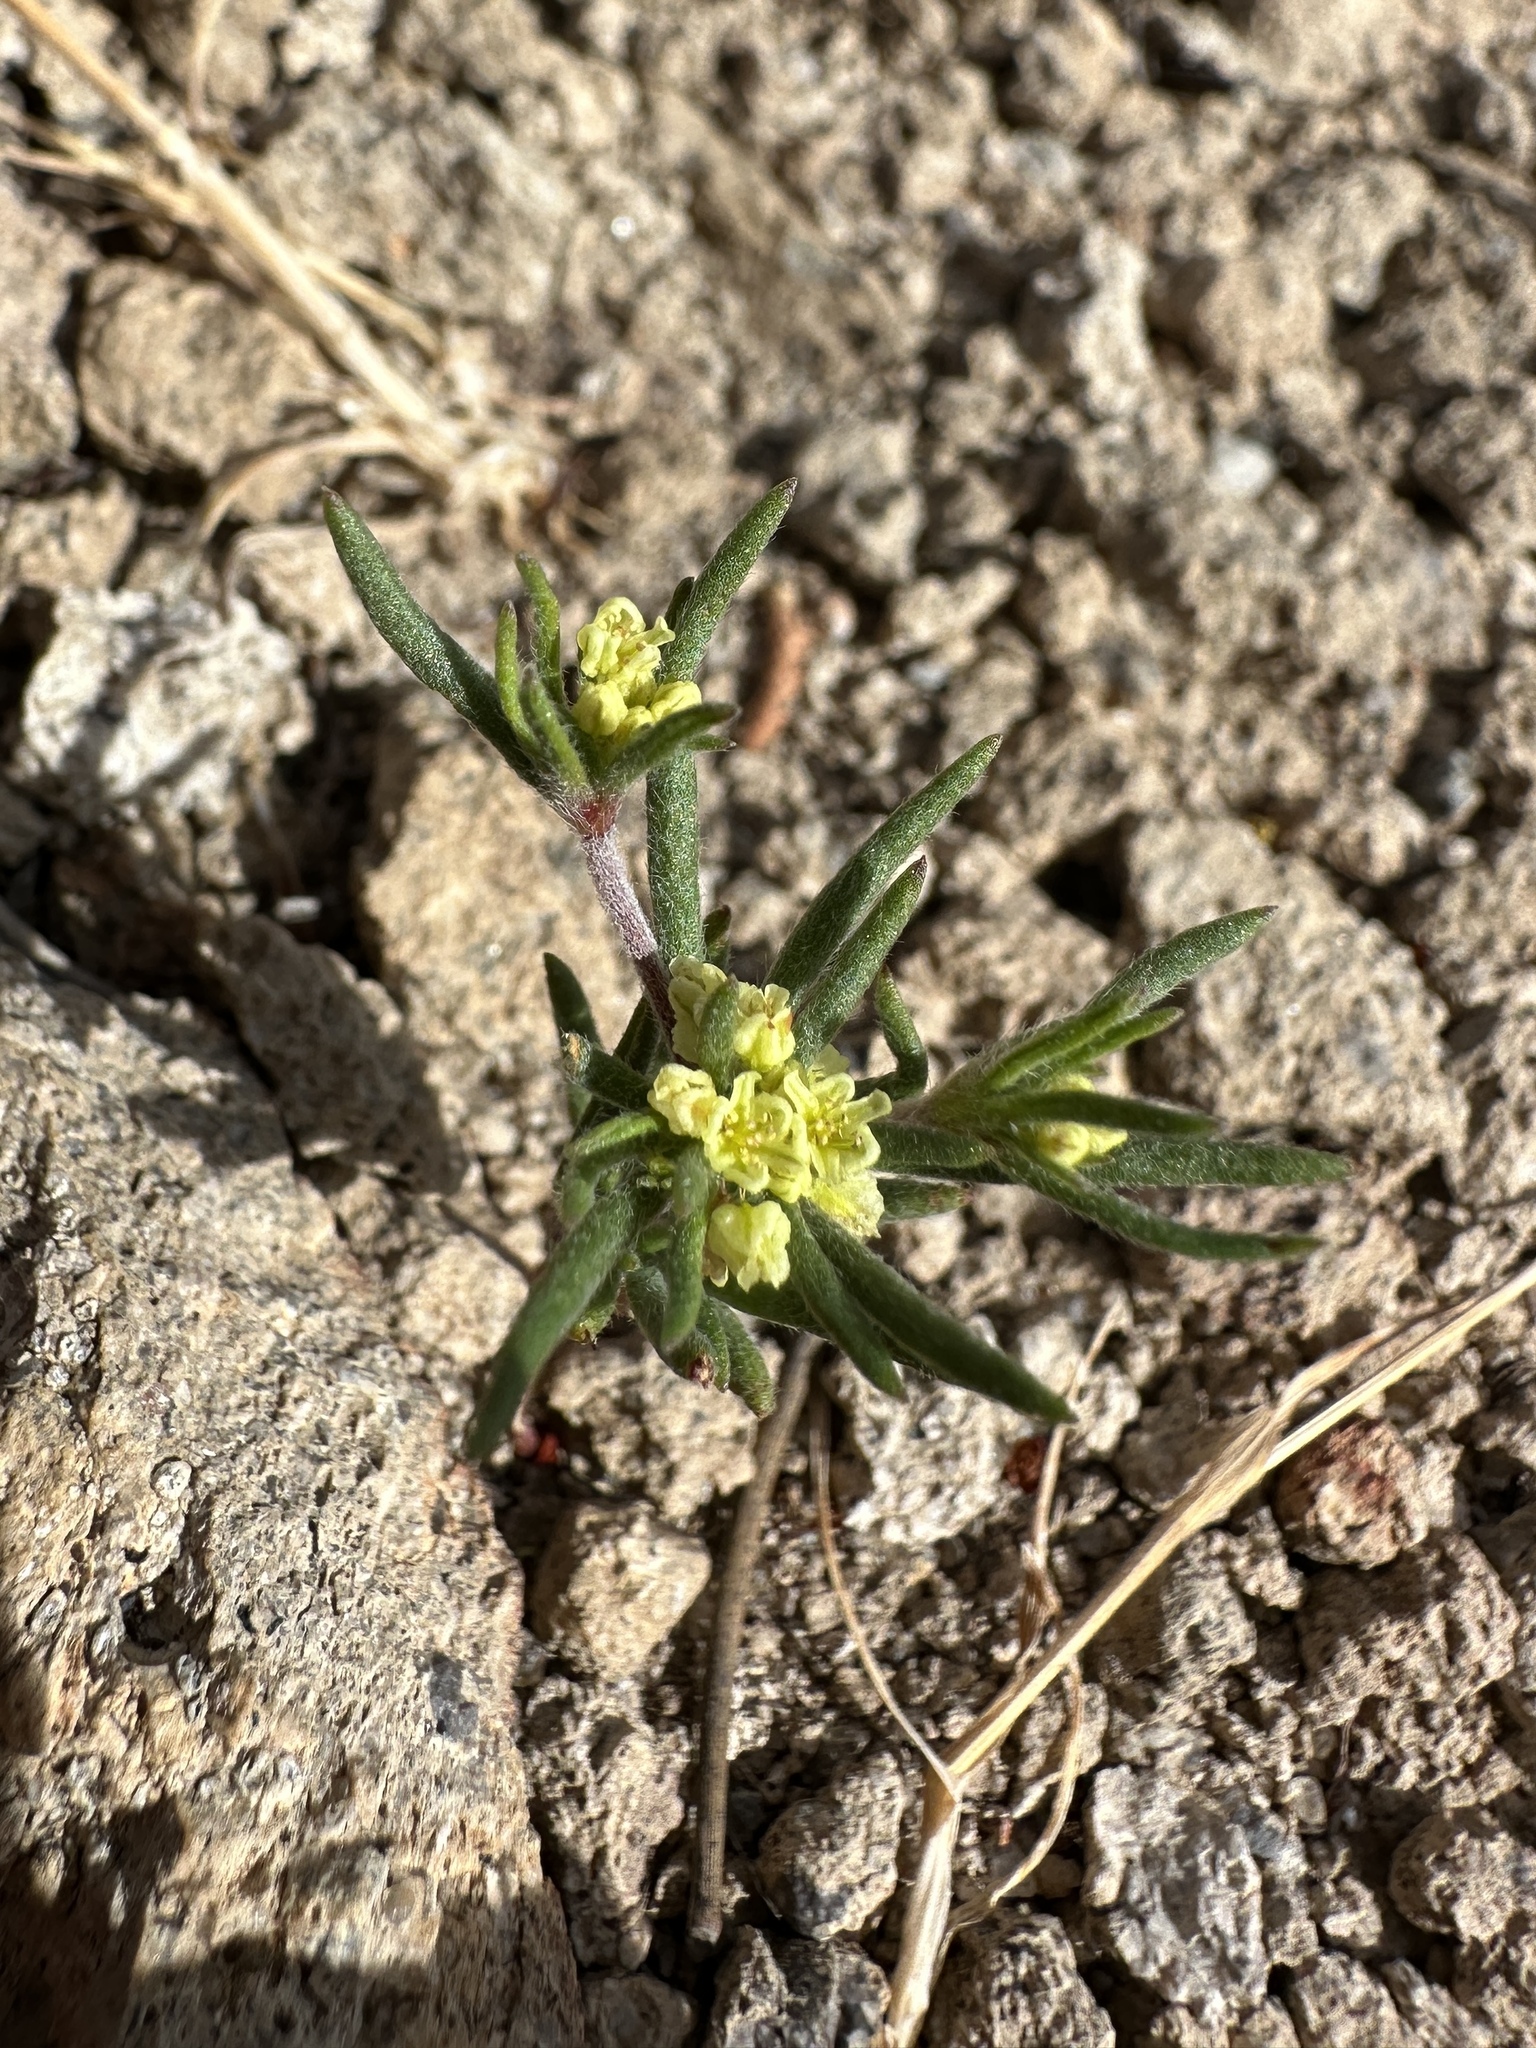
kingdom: Plantae
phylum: Tracheophyta
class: Magnoliopsida
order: Caryophyllales
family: Polygonaceae
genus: Eriogonum
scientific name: Eriogonum pharnaceoides
